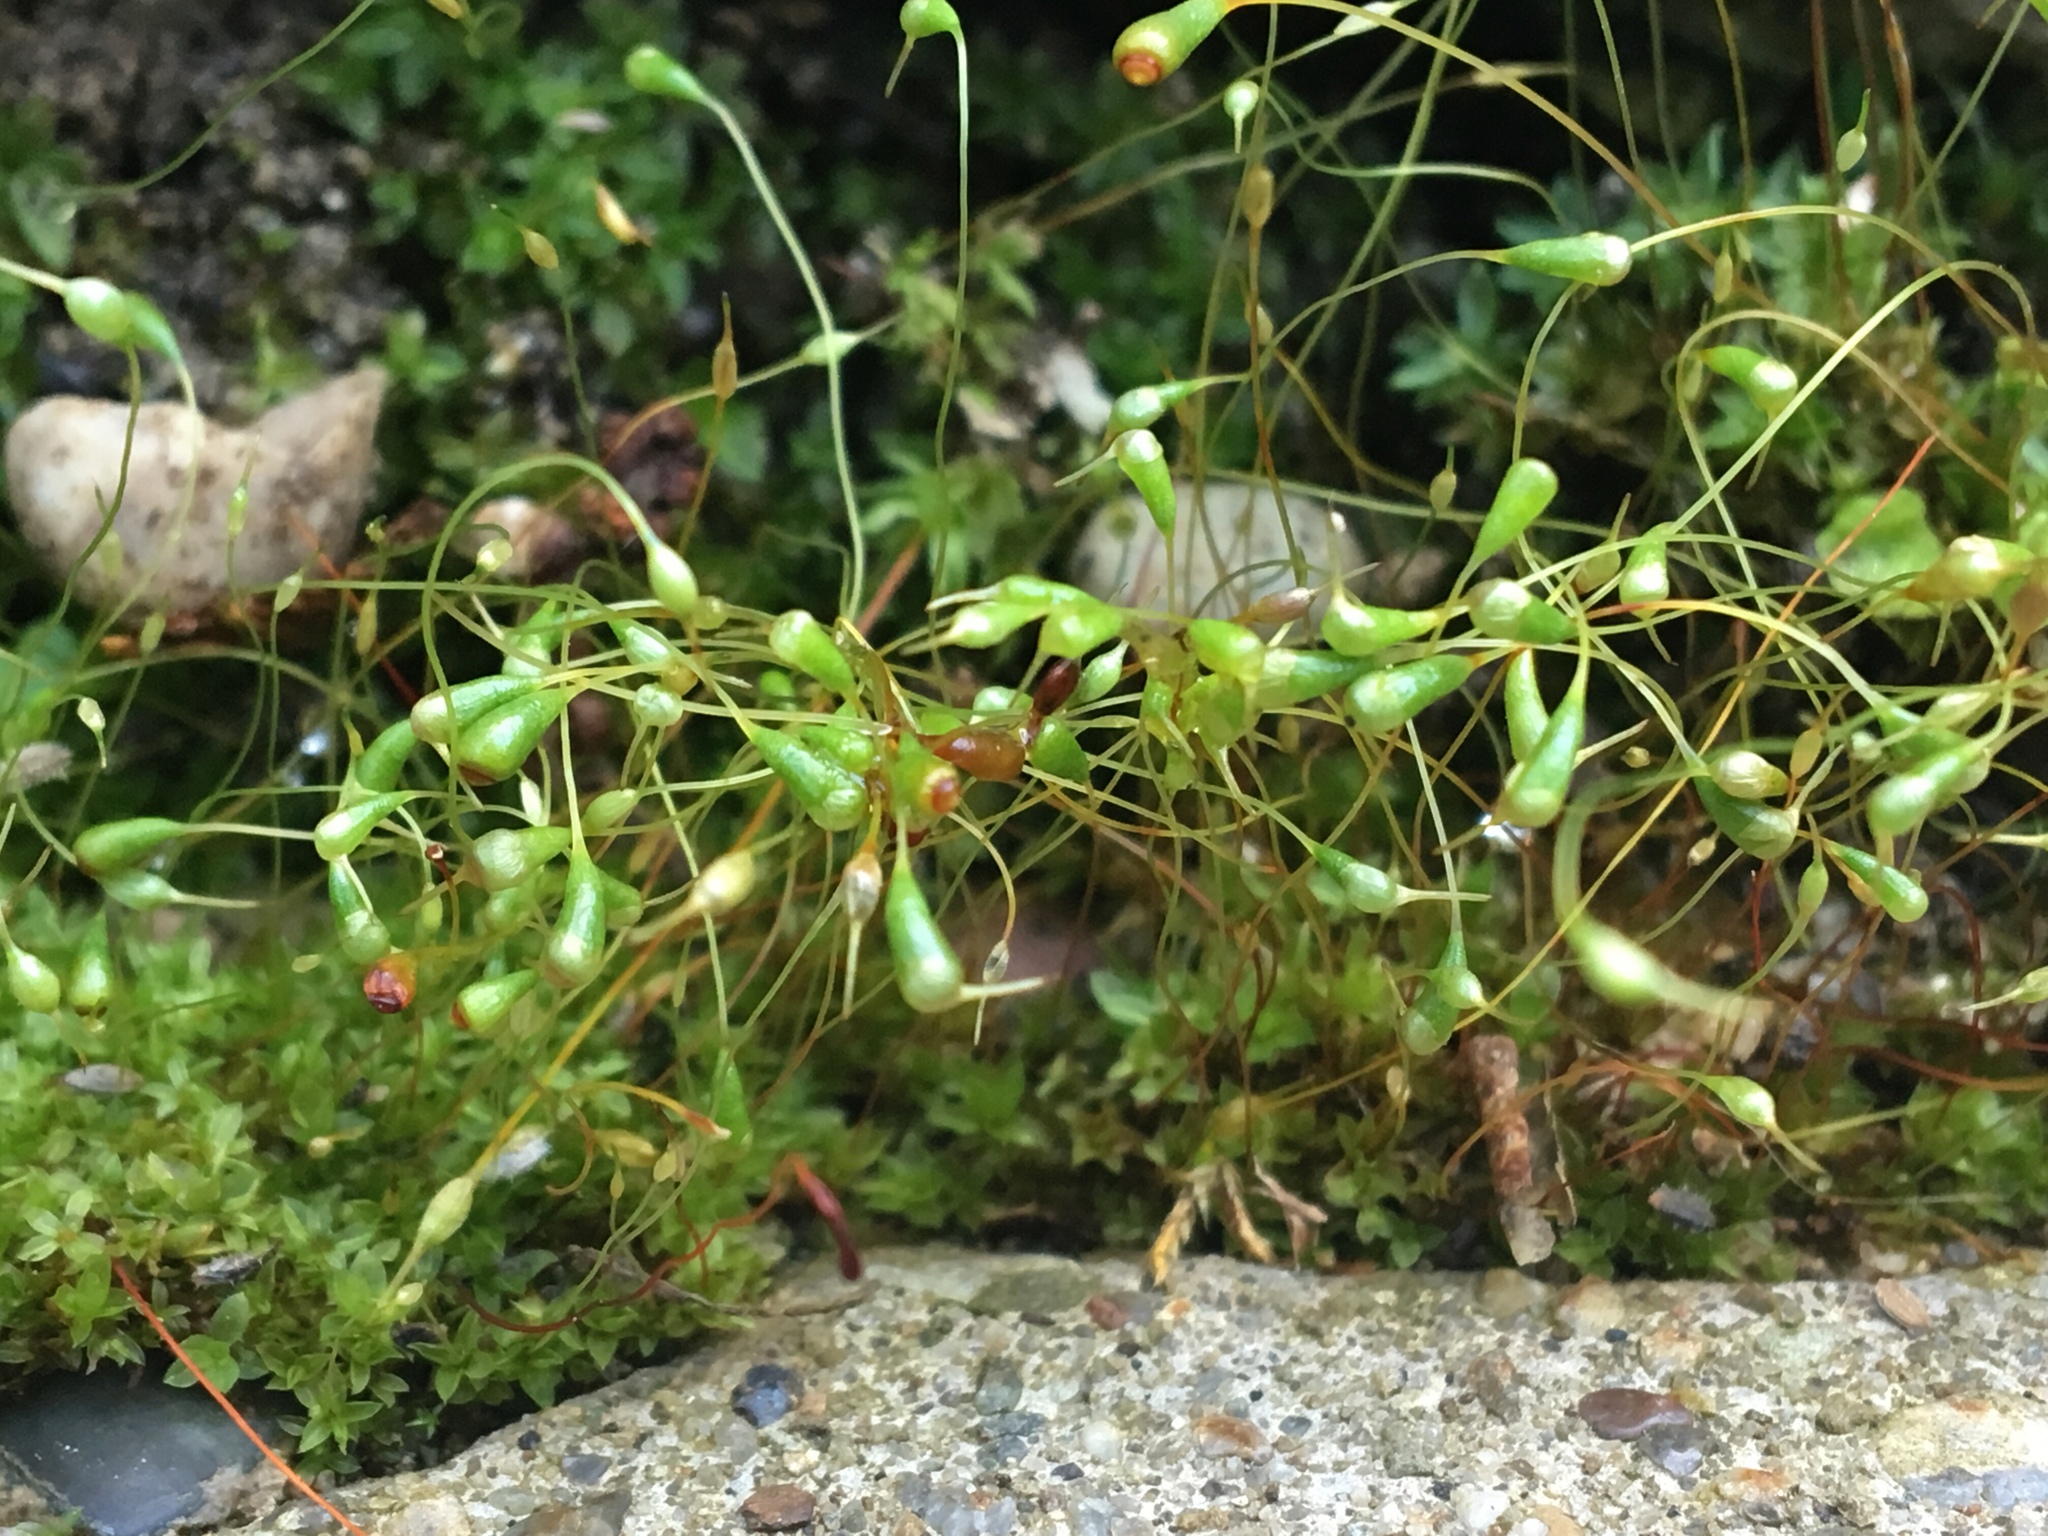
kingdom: Plantae
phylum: Bryophyta
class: Bryopsida
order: Funariales
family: Funariaceae
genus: Funaria
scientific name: Funaria hygrometrica
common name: Common cord moss
